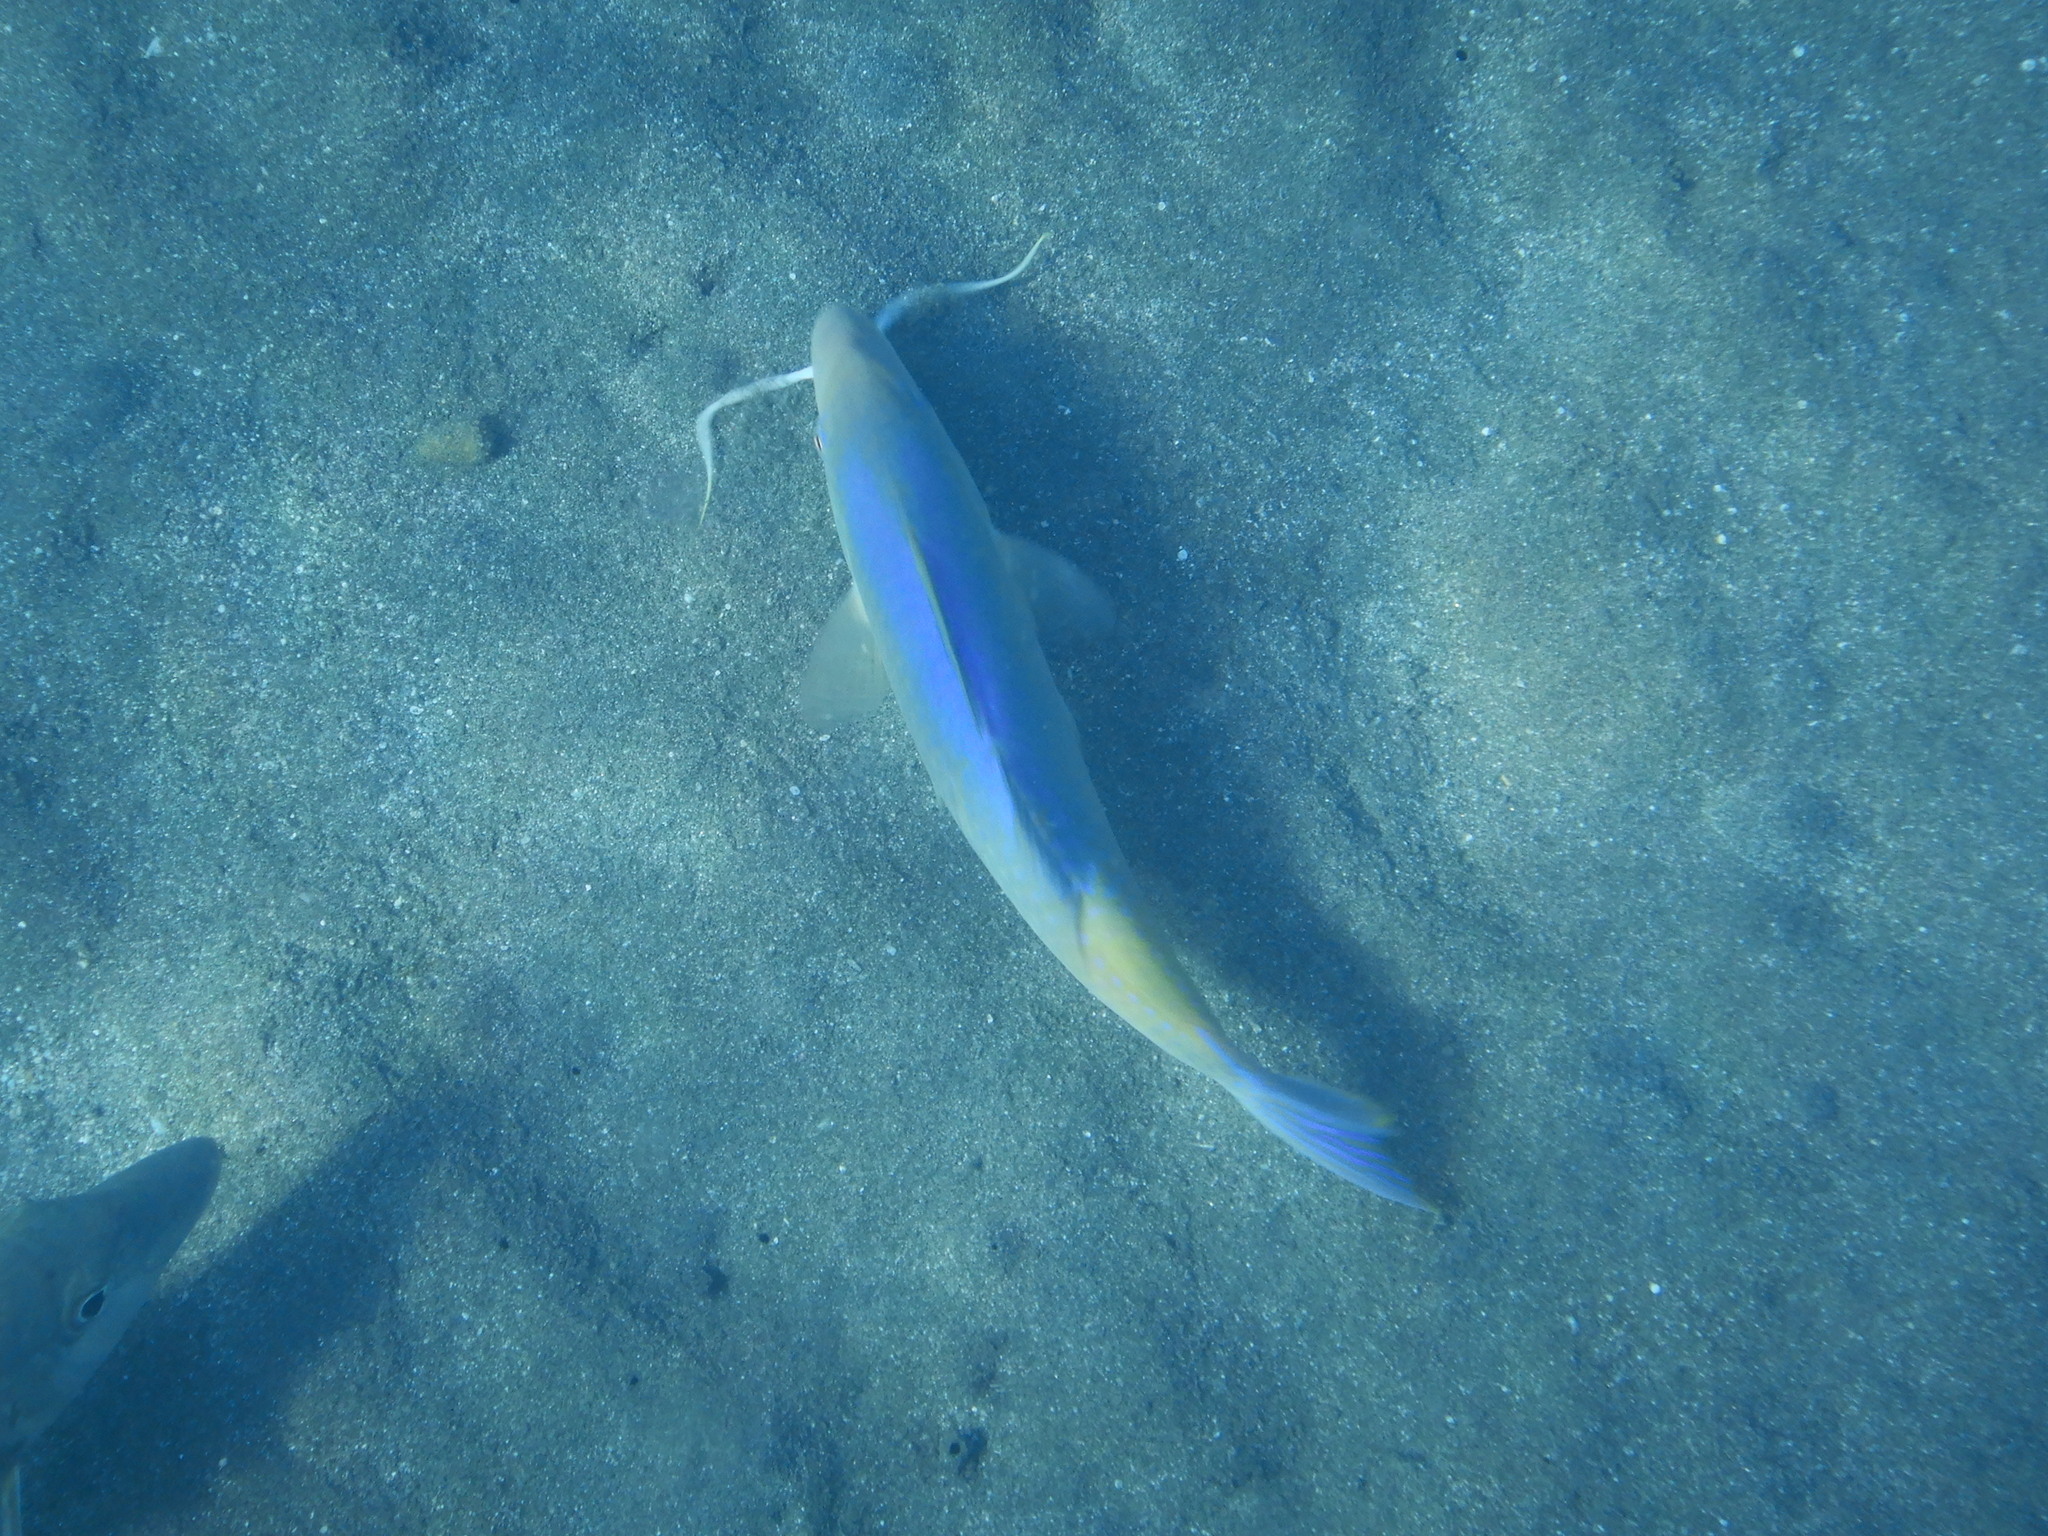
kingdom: Animalia
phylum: Chordata
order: Perciformes
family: Mullidae
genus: Parupeneus
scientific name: Parupeneus cyclostomus
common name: Goldsaddle goatfish
